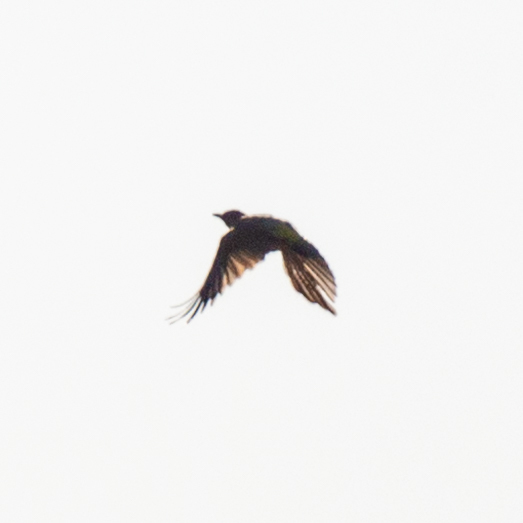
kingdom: Animalia
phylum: Chordata
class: Aves
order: Piciformes
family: Picidae
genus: Picus
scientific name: Picus sharpei
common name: Iberian green woodpecker
